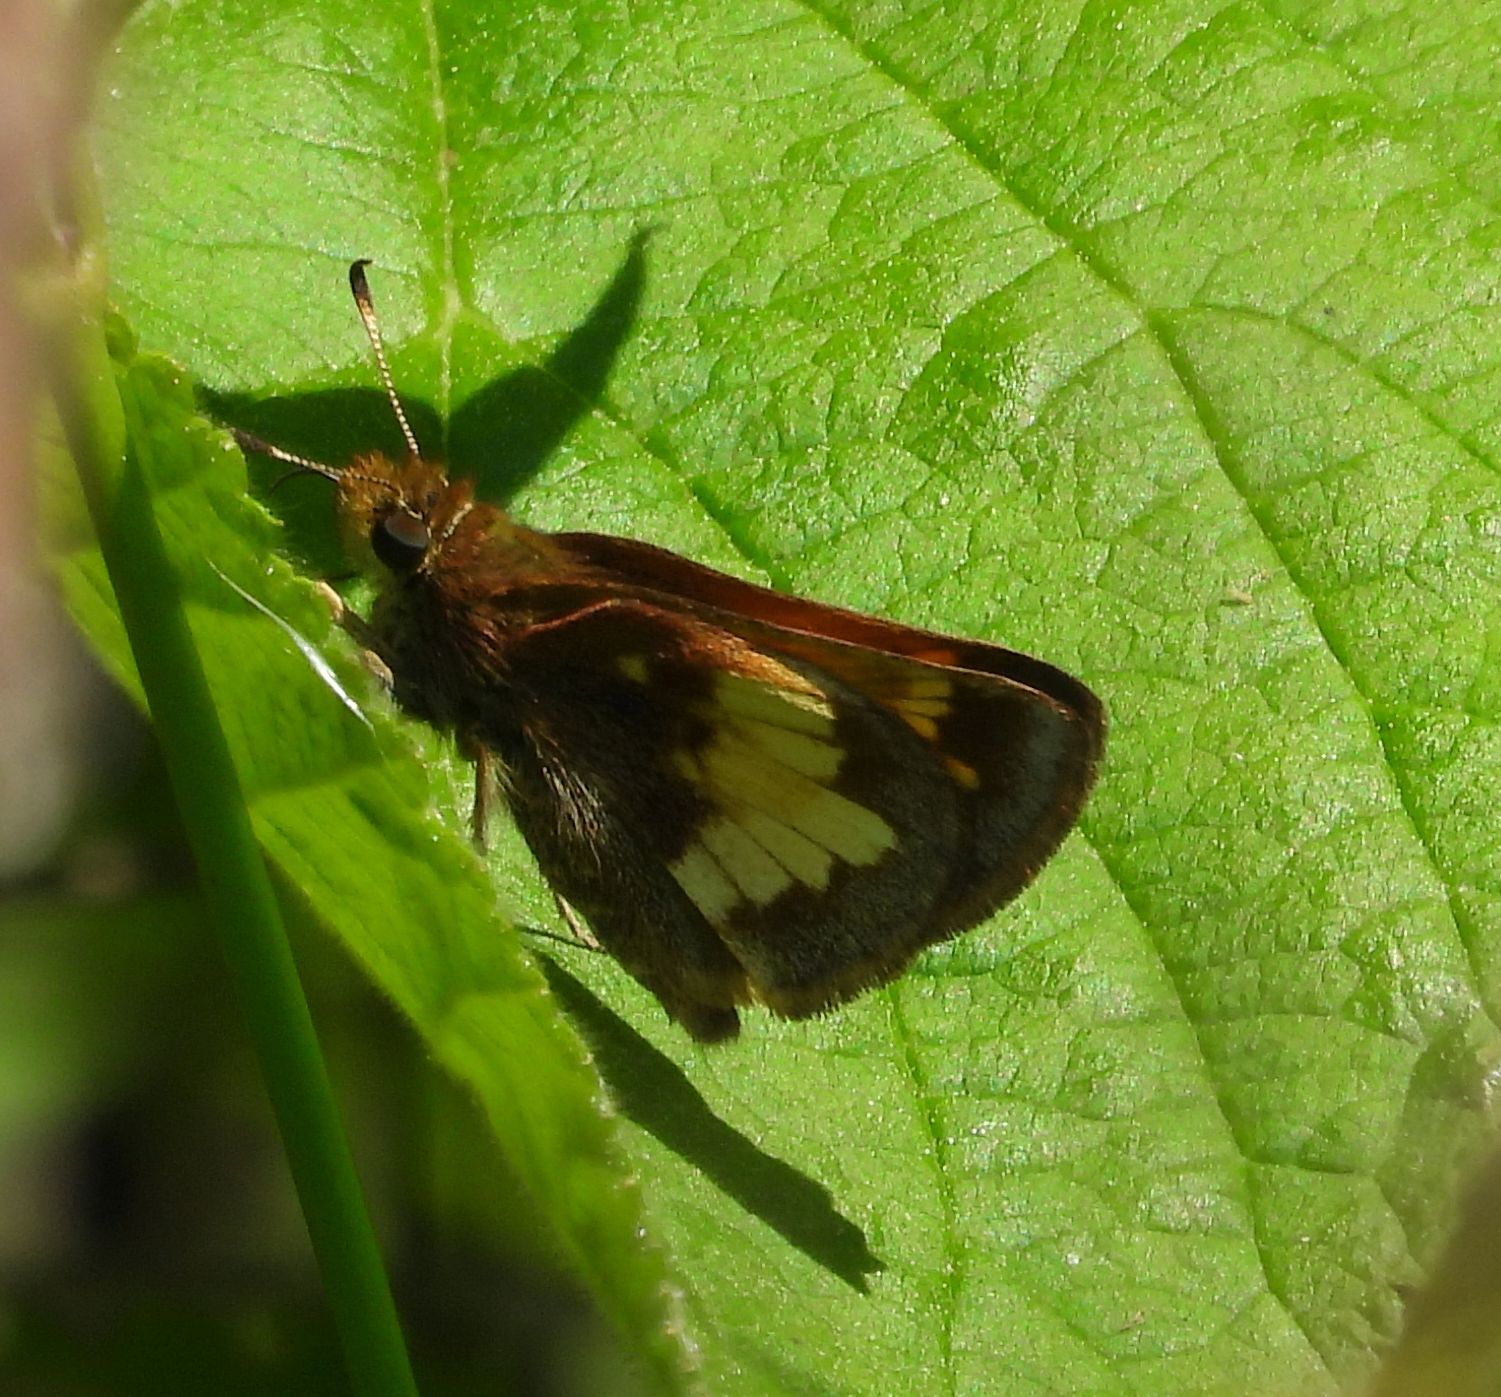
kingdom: Animalia
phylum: Arthropoda
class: Insecta
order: Lepidoptera
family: Hesperiidae
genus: Lon
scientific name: Lon hobomok
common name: Hobomok skipper
